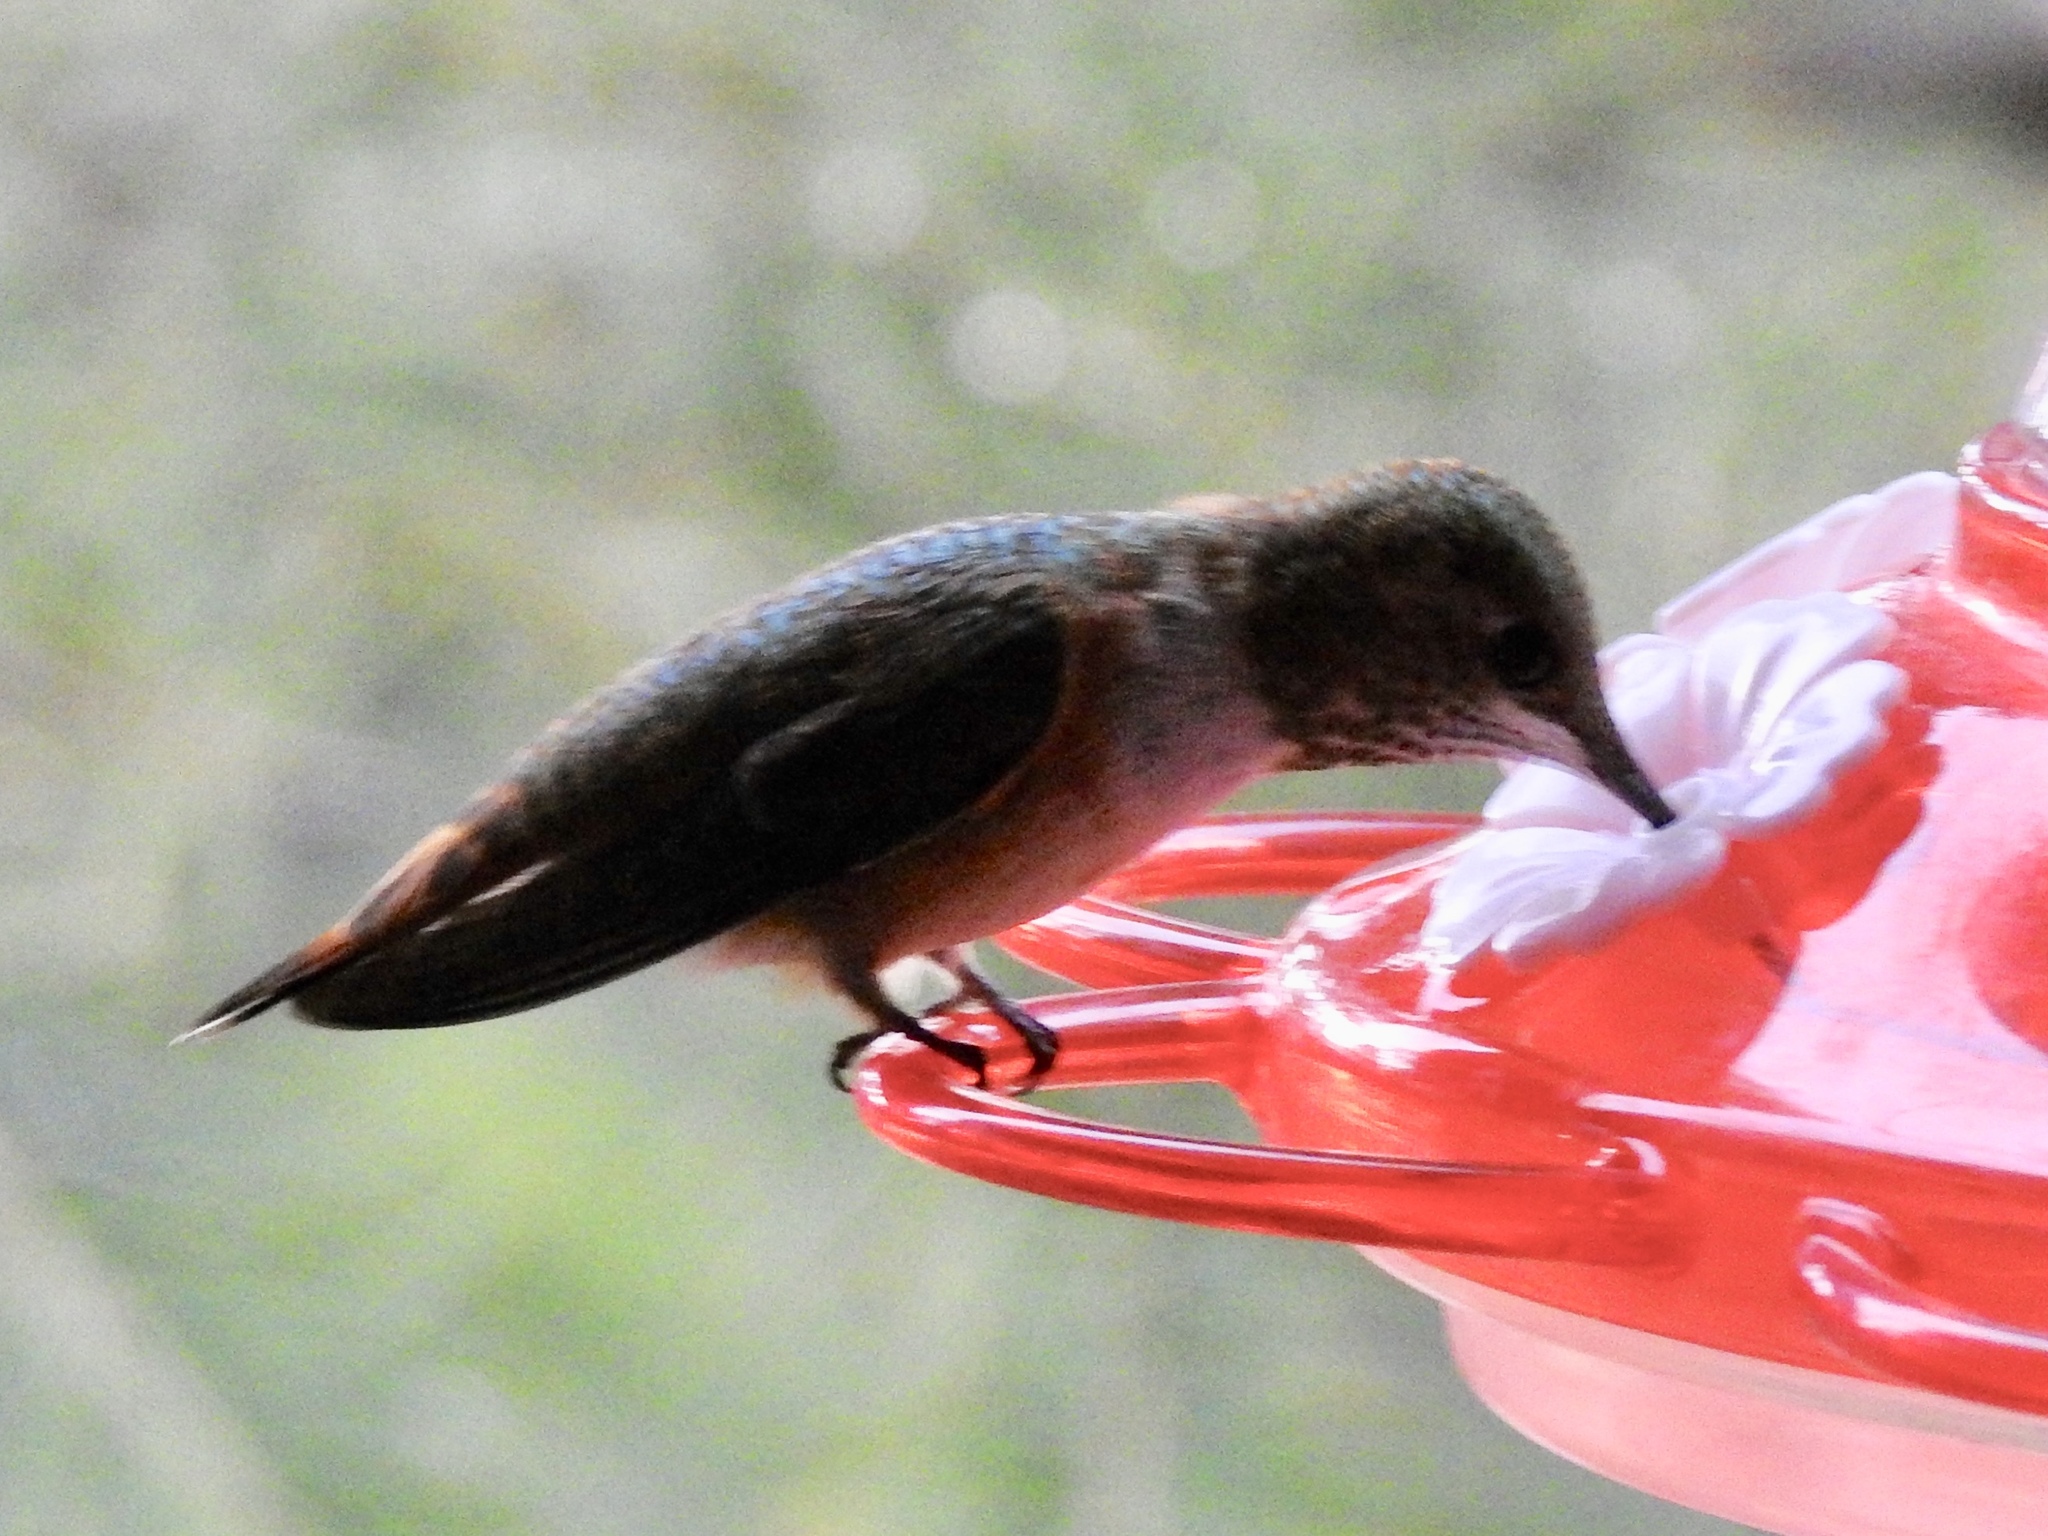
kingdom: Animalia
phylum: Chordata
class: Aves
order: Apodiformes
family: Trochilidae
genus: Selasphorus
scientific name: Selasphorus rufus
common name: Rufous hummingbird
